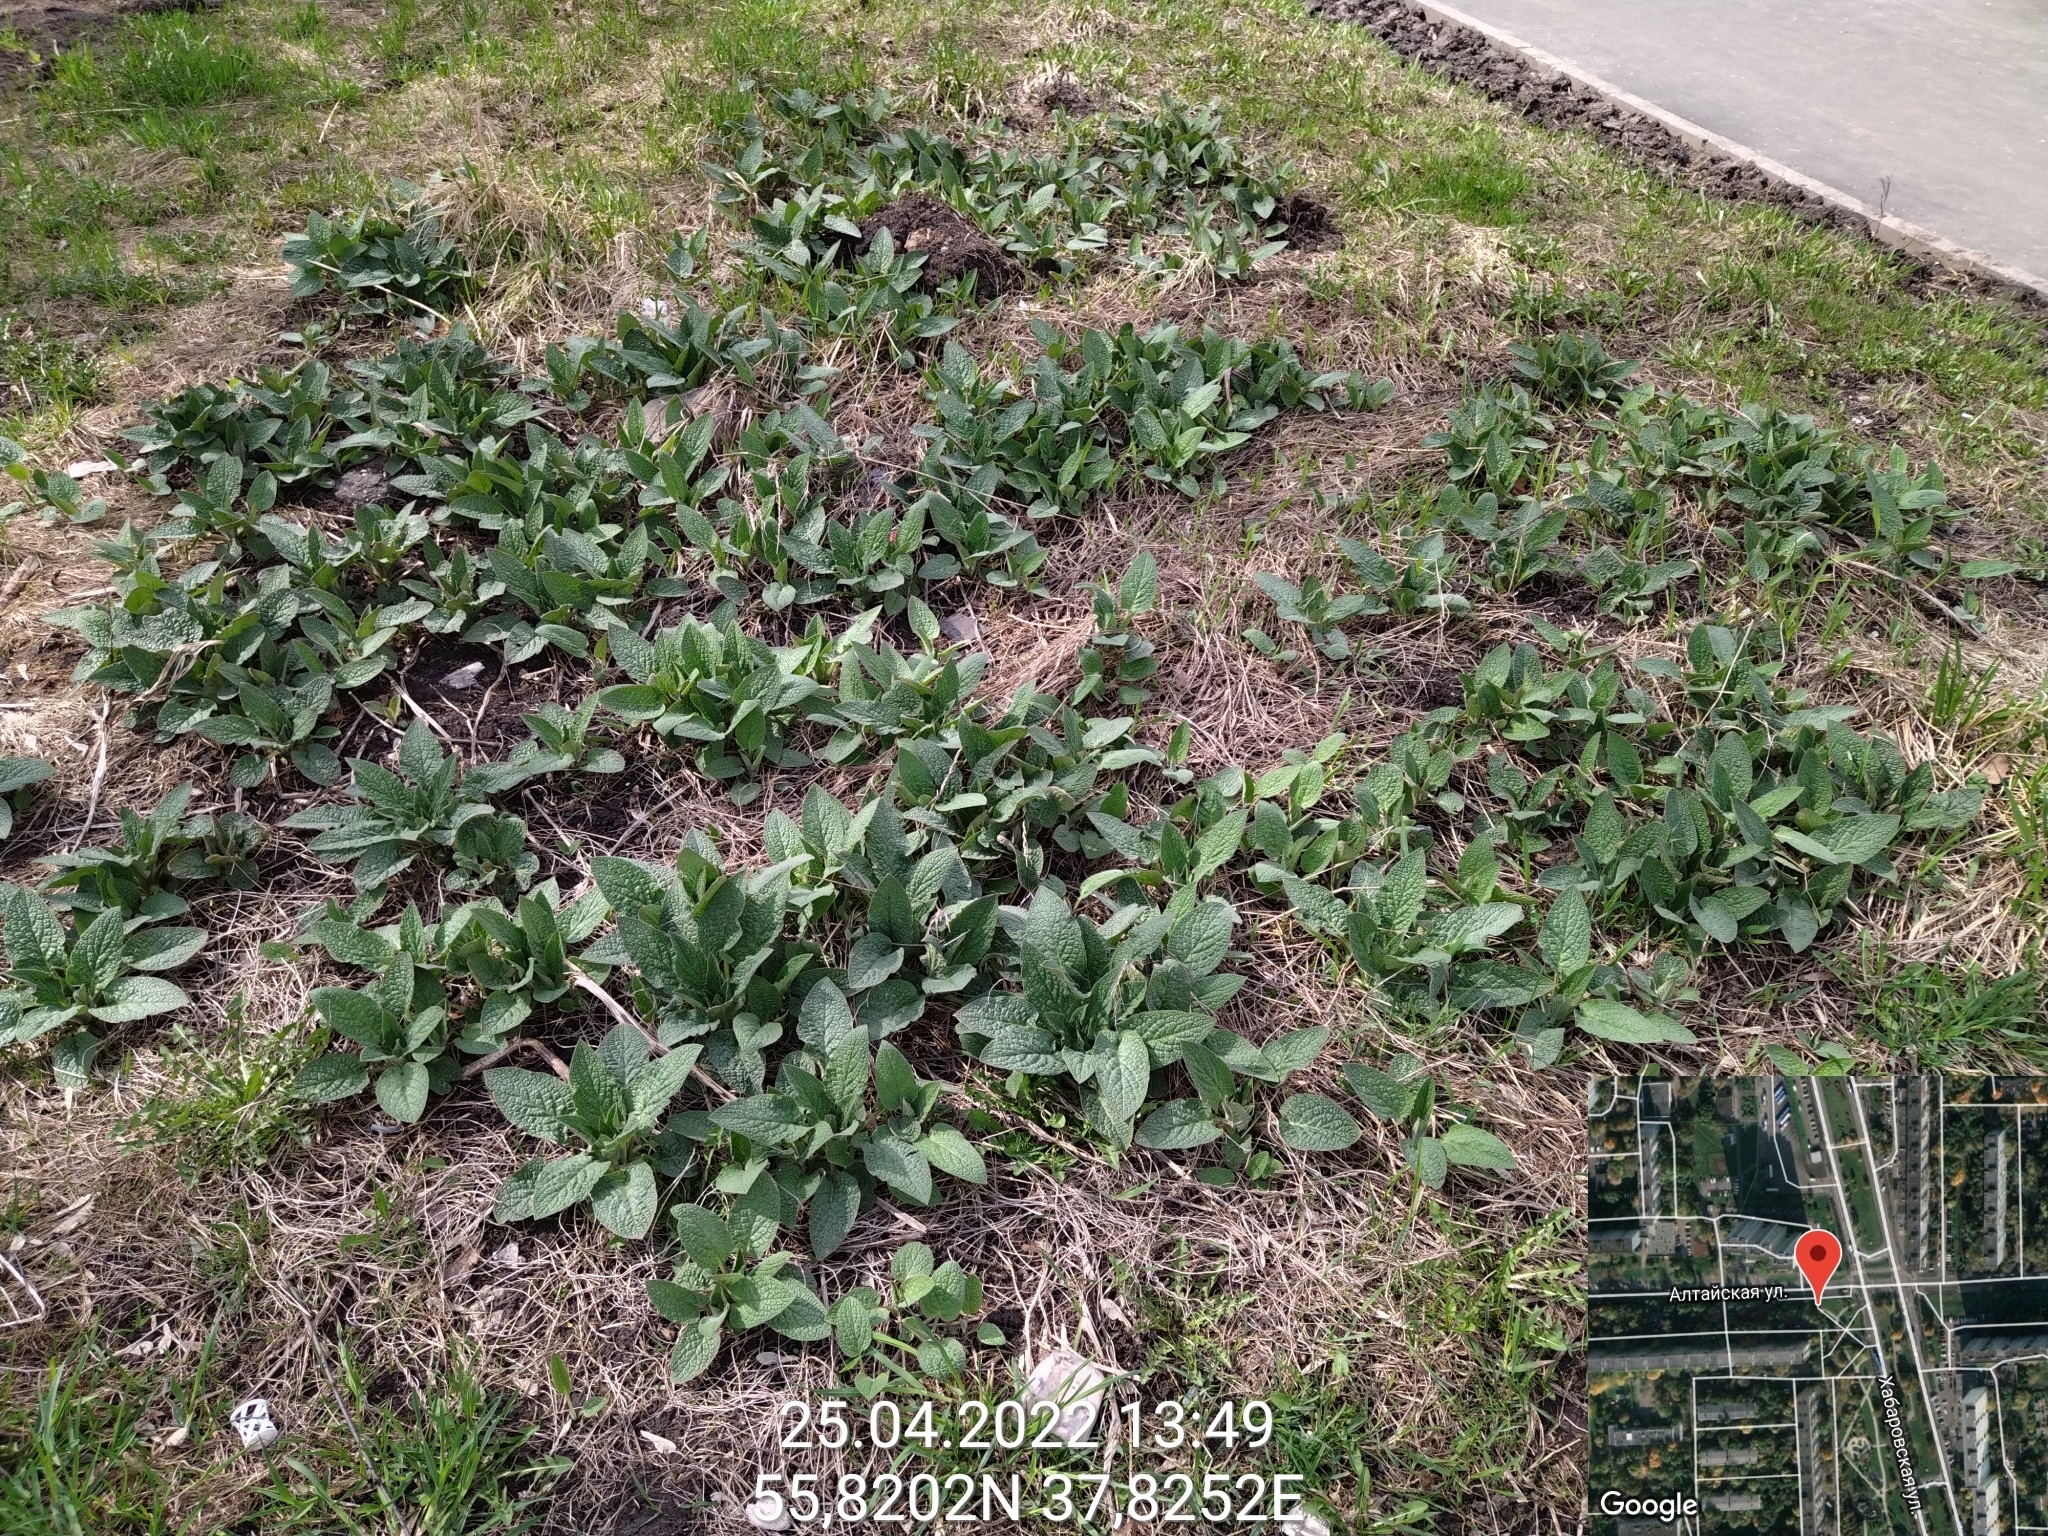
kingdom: Plantae
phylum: Tracheophyta
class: Magnoliopsida
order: Boraginales
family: Boraginaceae
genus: Symphytum
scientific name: Symphytum caucasicum
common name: Caucasian comfrey
